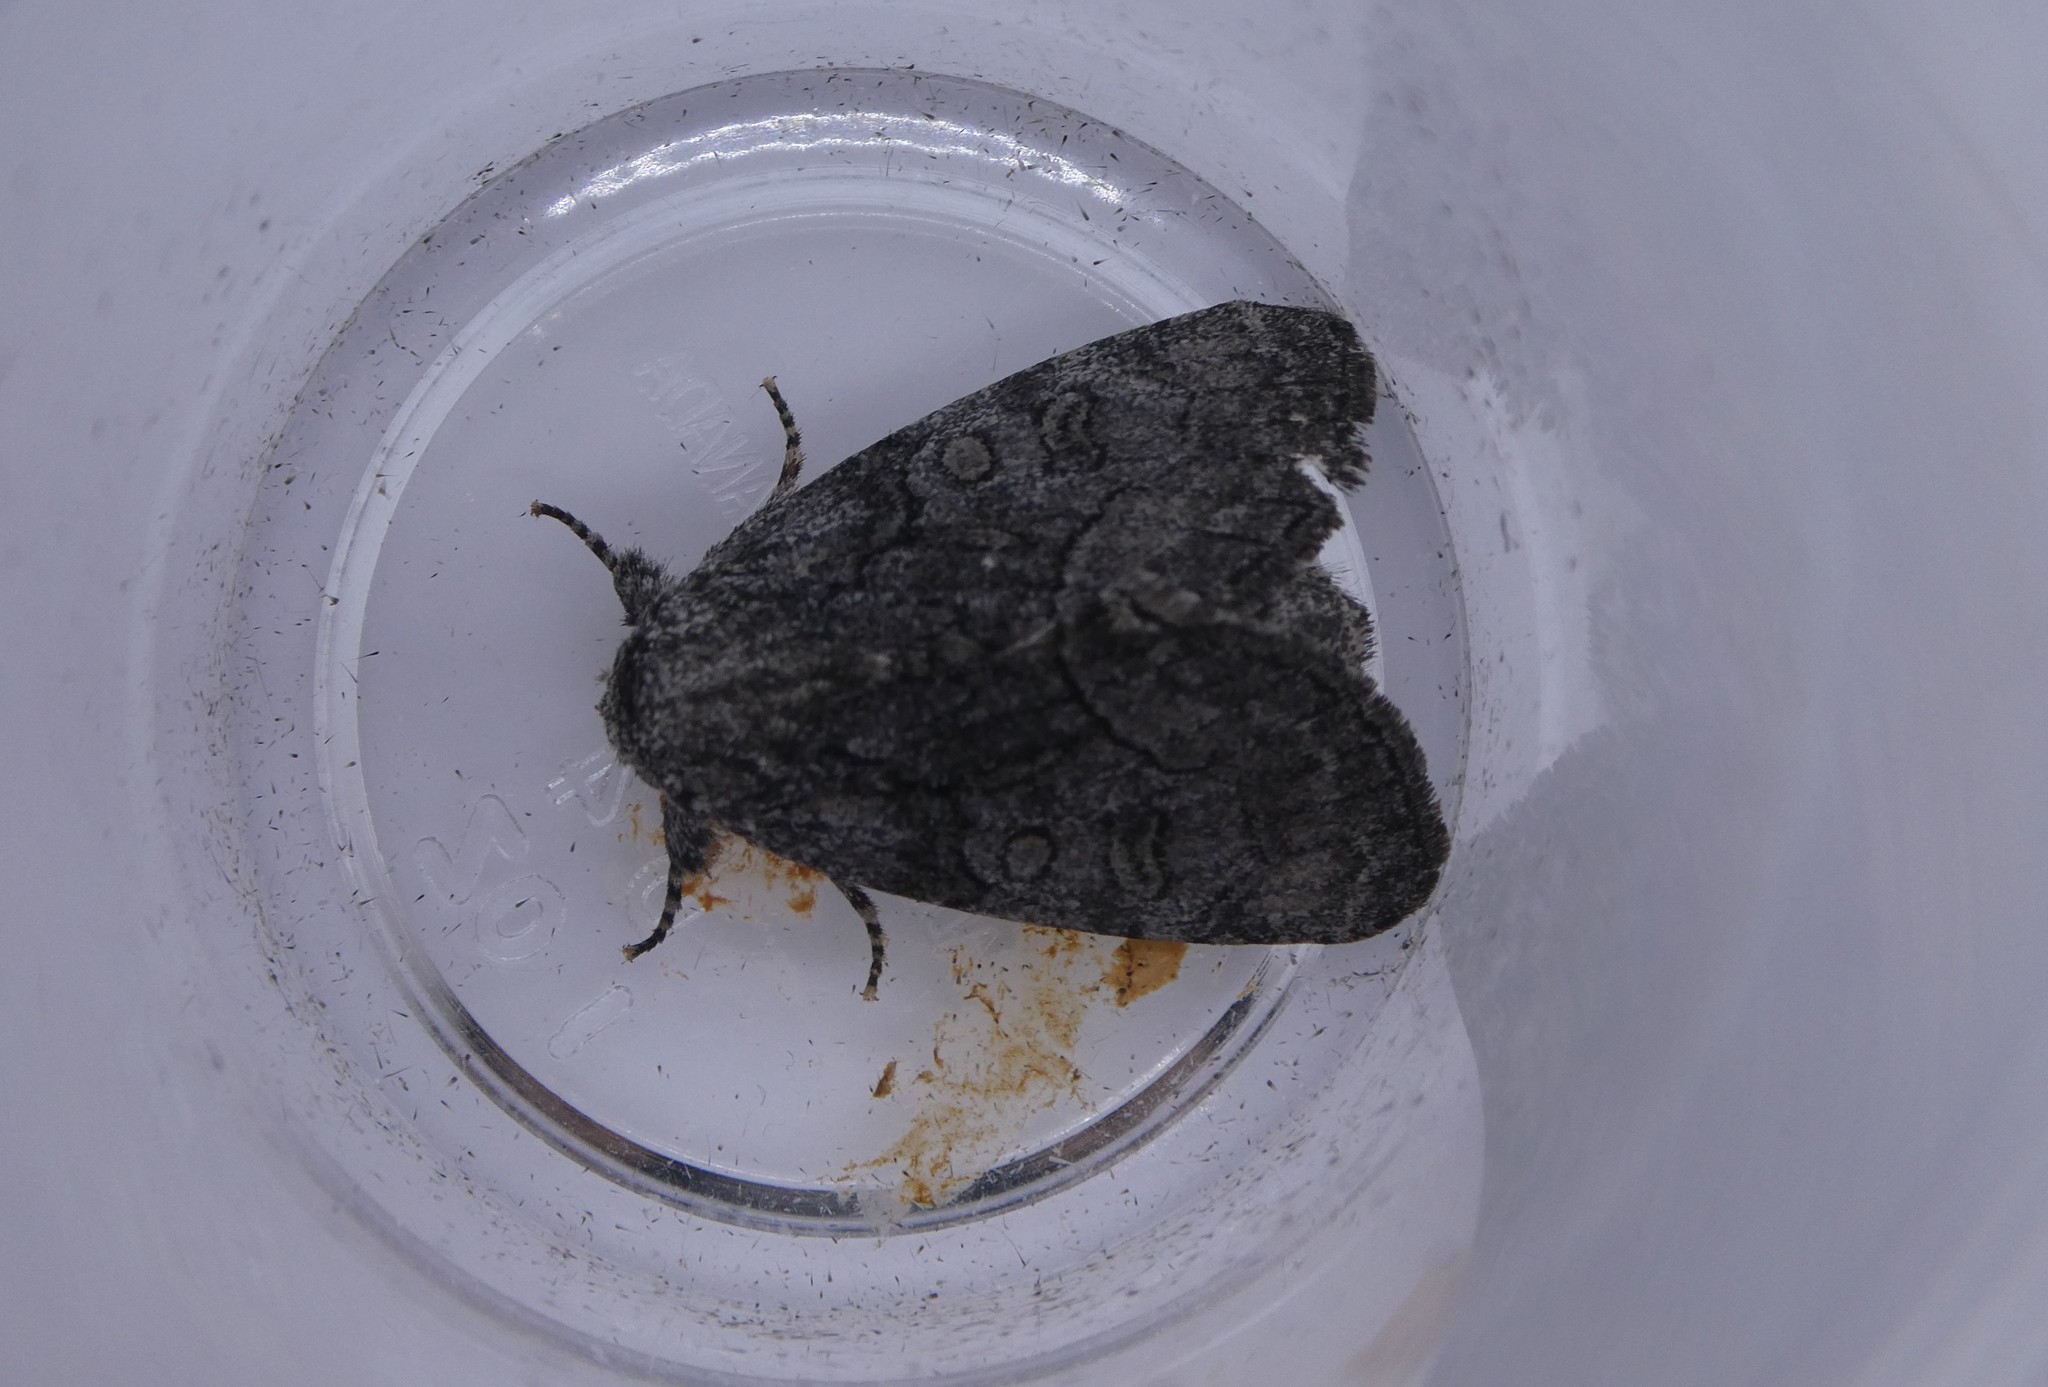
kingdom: Animalia
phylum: Arthropoda
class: Insecta
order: Lepidoptera
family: Noctuidae
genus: Raphia
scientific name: Raphia frater
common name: Brother
